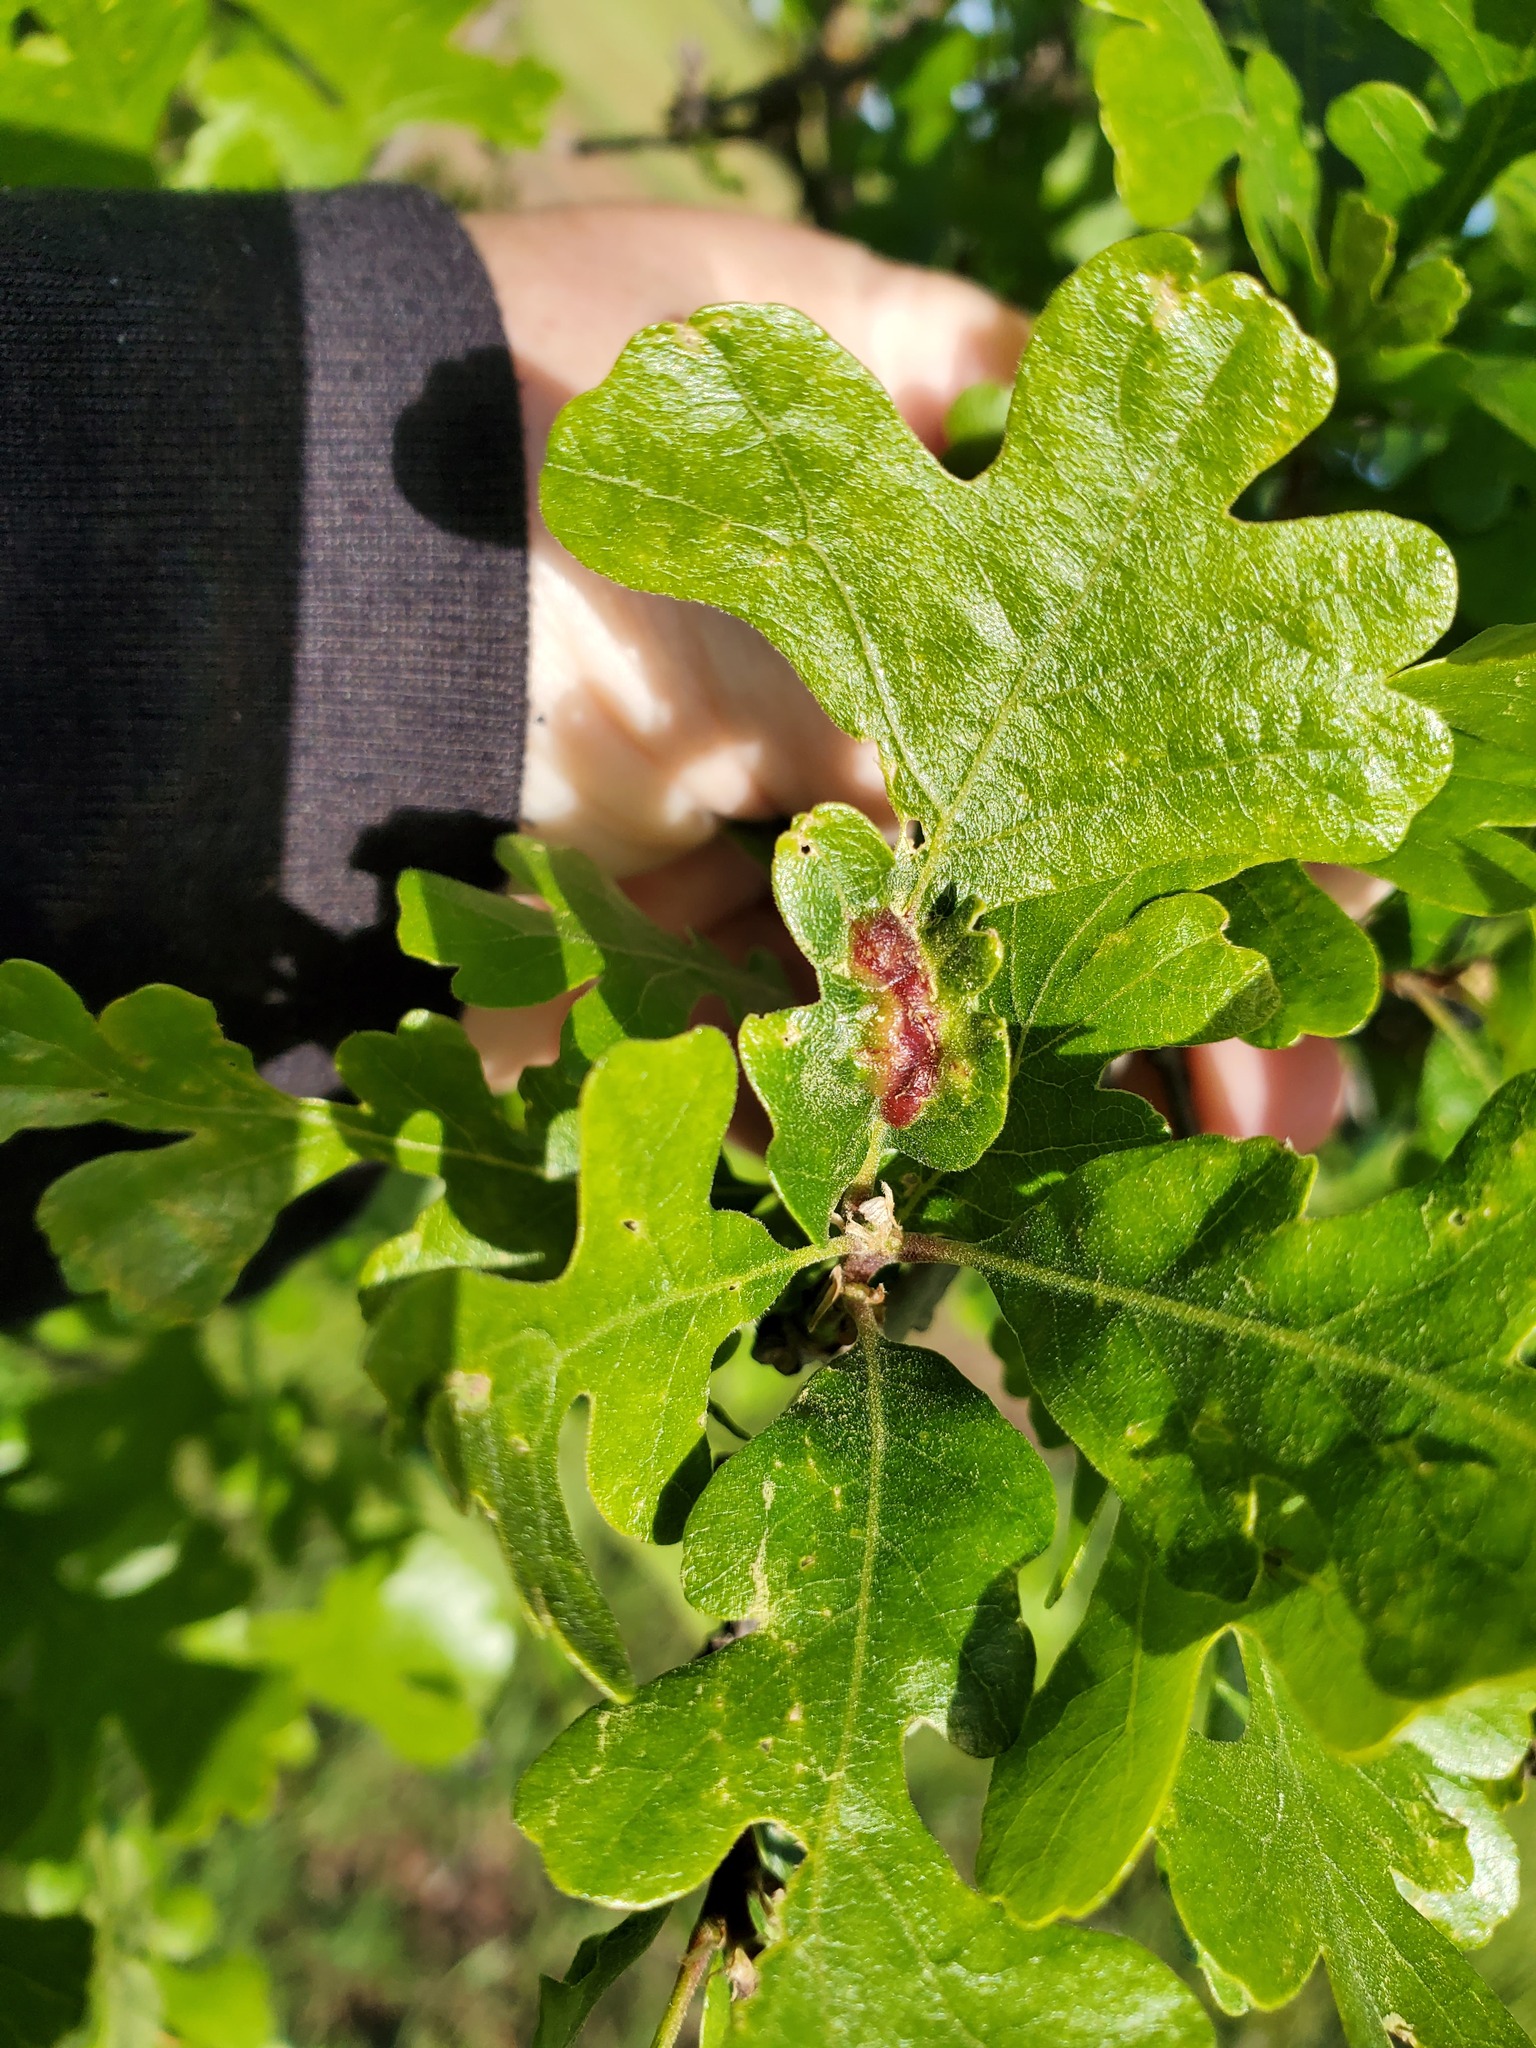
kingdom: Animalia
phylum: Arthropoda
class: Insecta
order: Hymenoptera
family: Cynipidae
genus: Neuroterus
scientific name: Neuroterus
